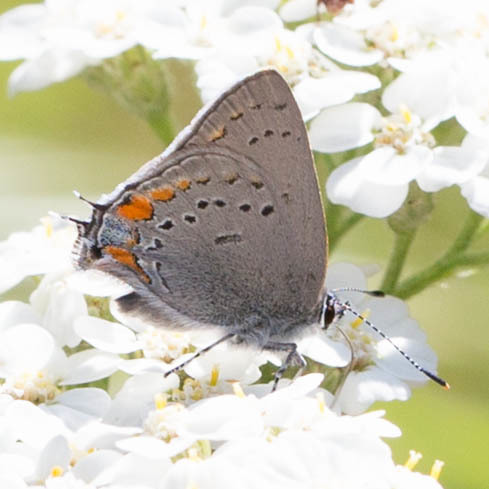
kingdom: Animalia
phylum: Arthropoda
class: Insecta
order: Lepidoptera
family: Lycaenidae
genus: Strymon
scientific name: Strymon acadica
